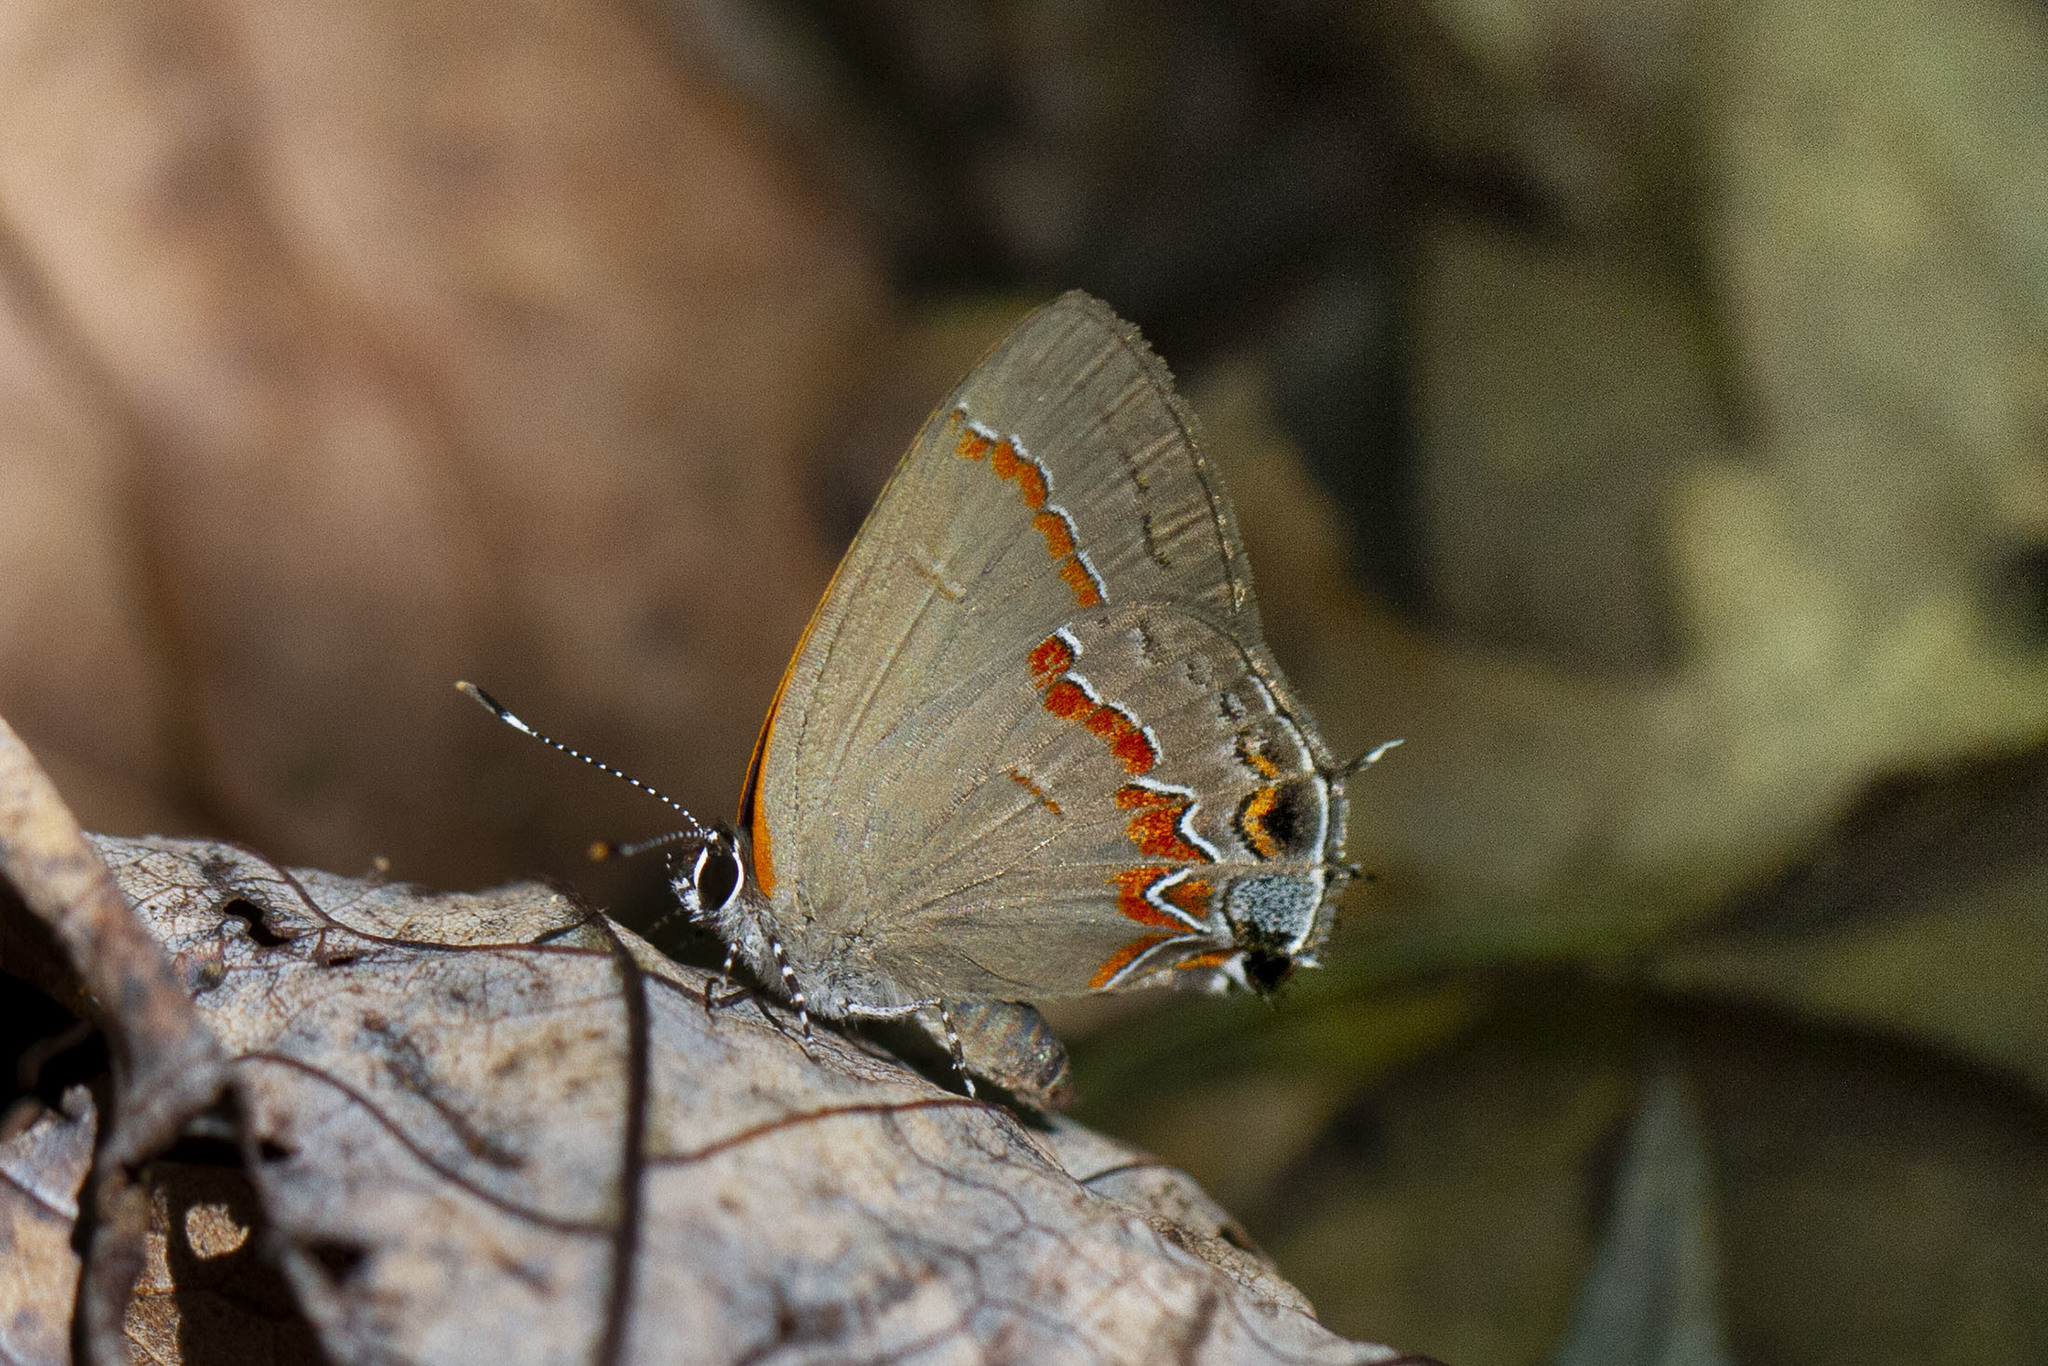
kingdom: Animalia
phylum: Arthropoda
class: Insecta
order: Lepidoptera
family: Lycaenidae
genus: Calycopis
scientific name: Calycopis cecrops
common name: Red-banded hairstreak
